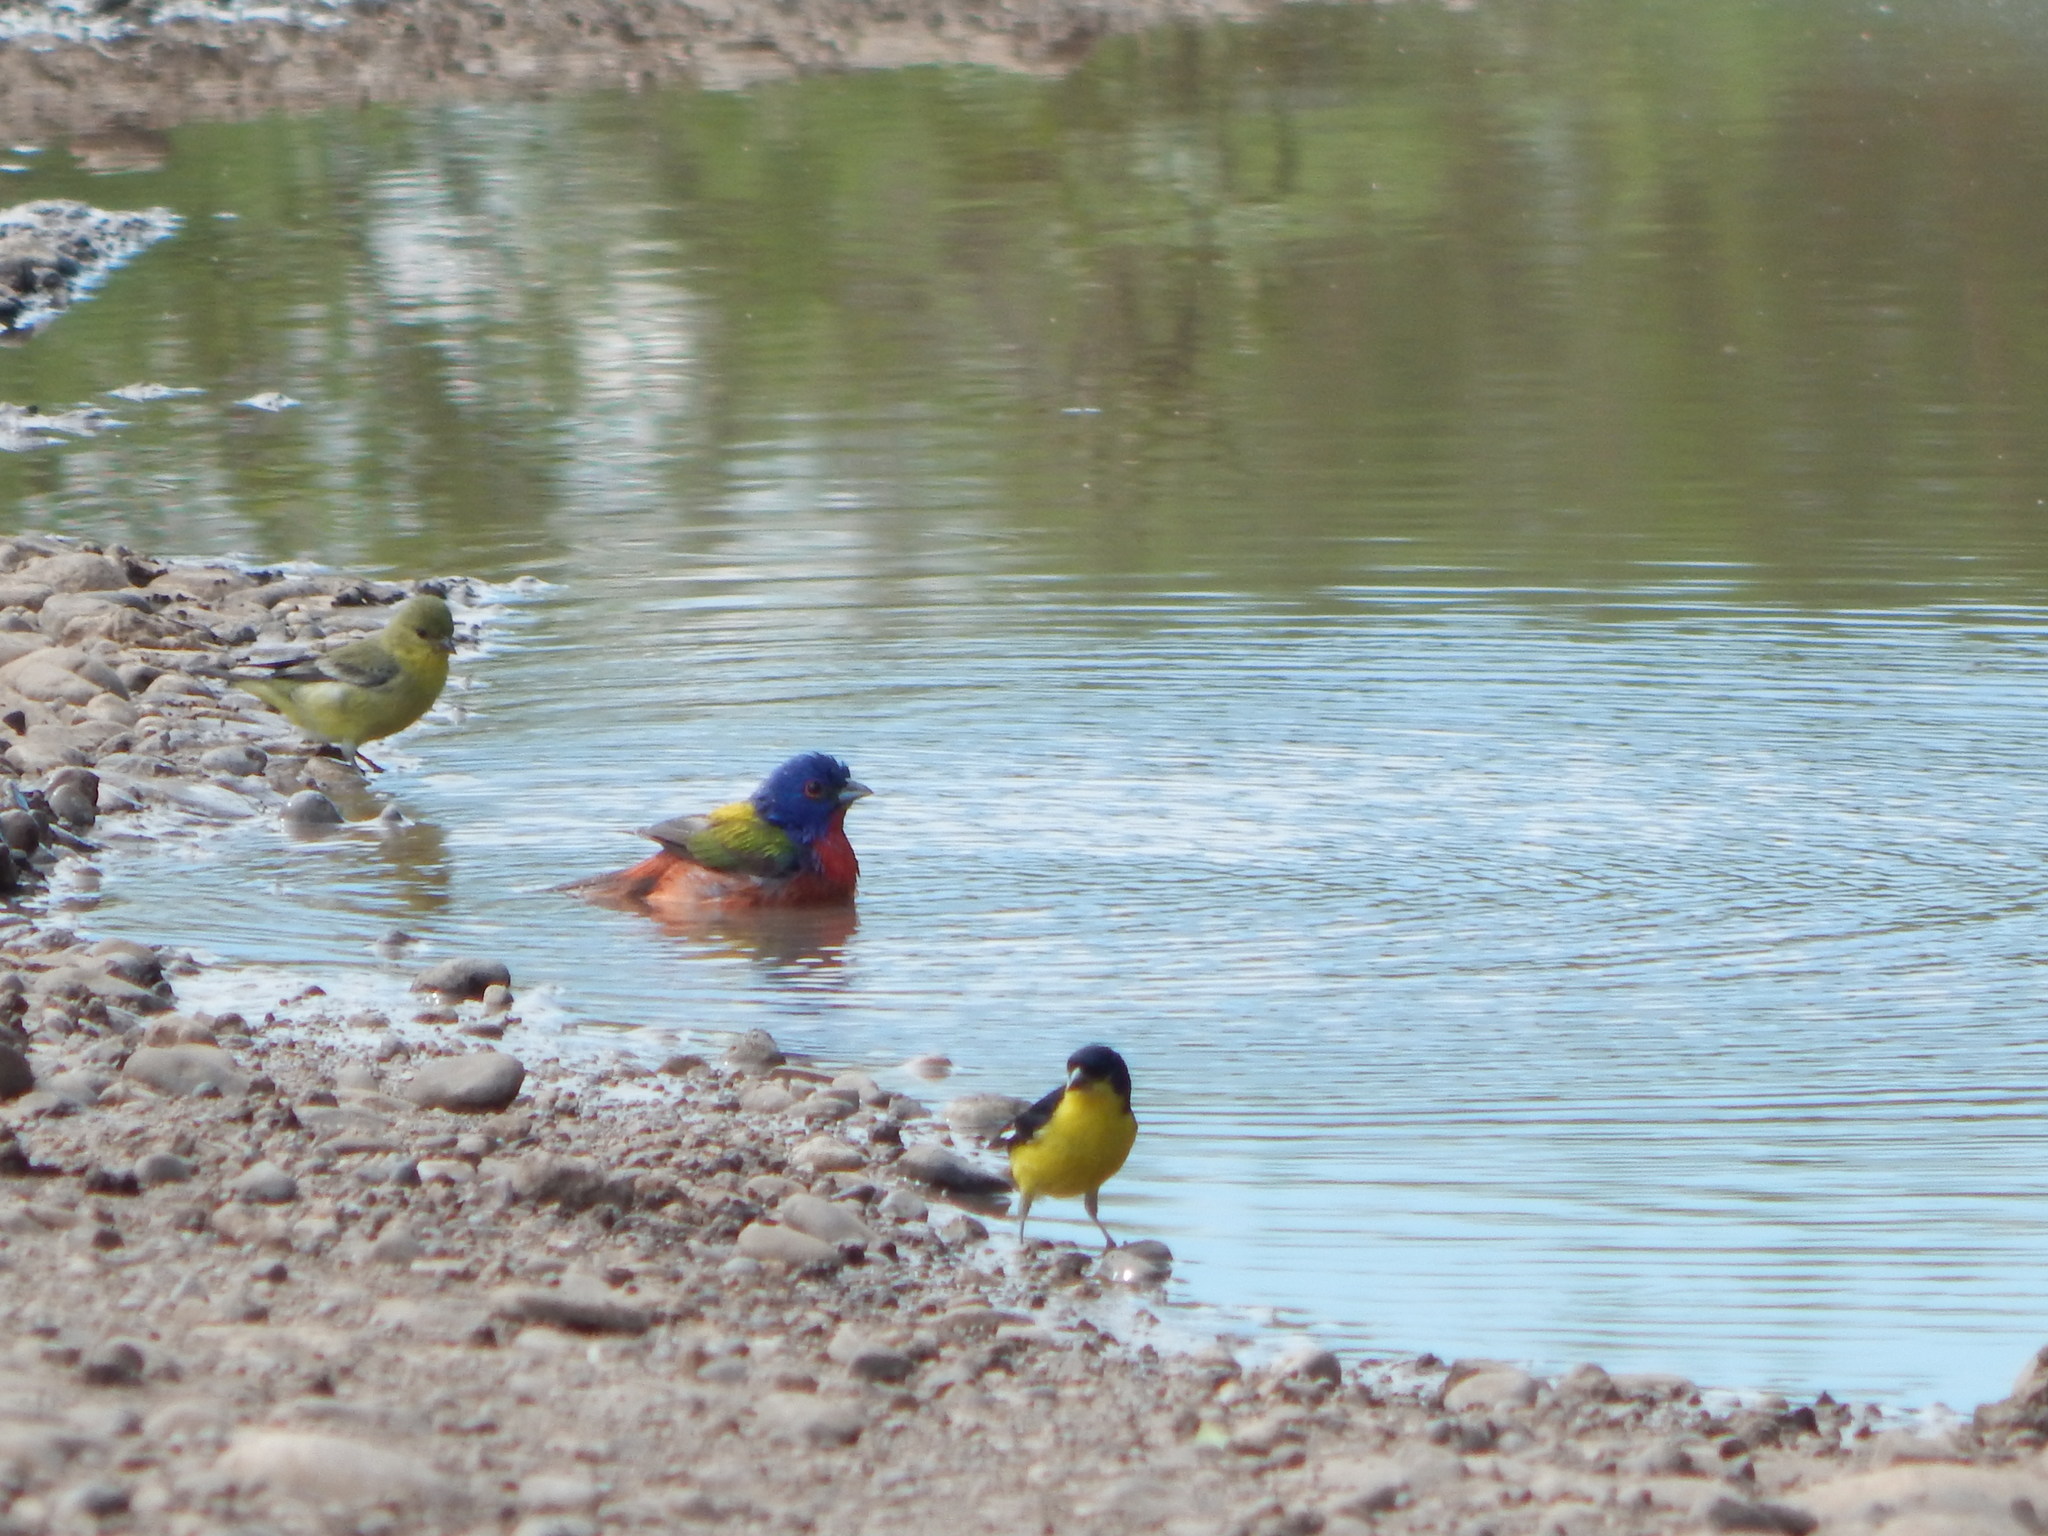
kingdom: Animalia
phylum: Chordata
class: Aves
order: Passeriformes
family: Cardinalidae
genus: Passerina
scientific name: Passerina ciris
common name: Painted bunting
